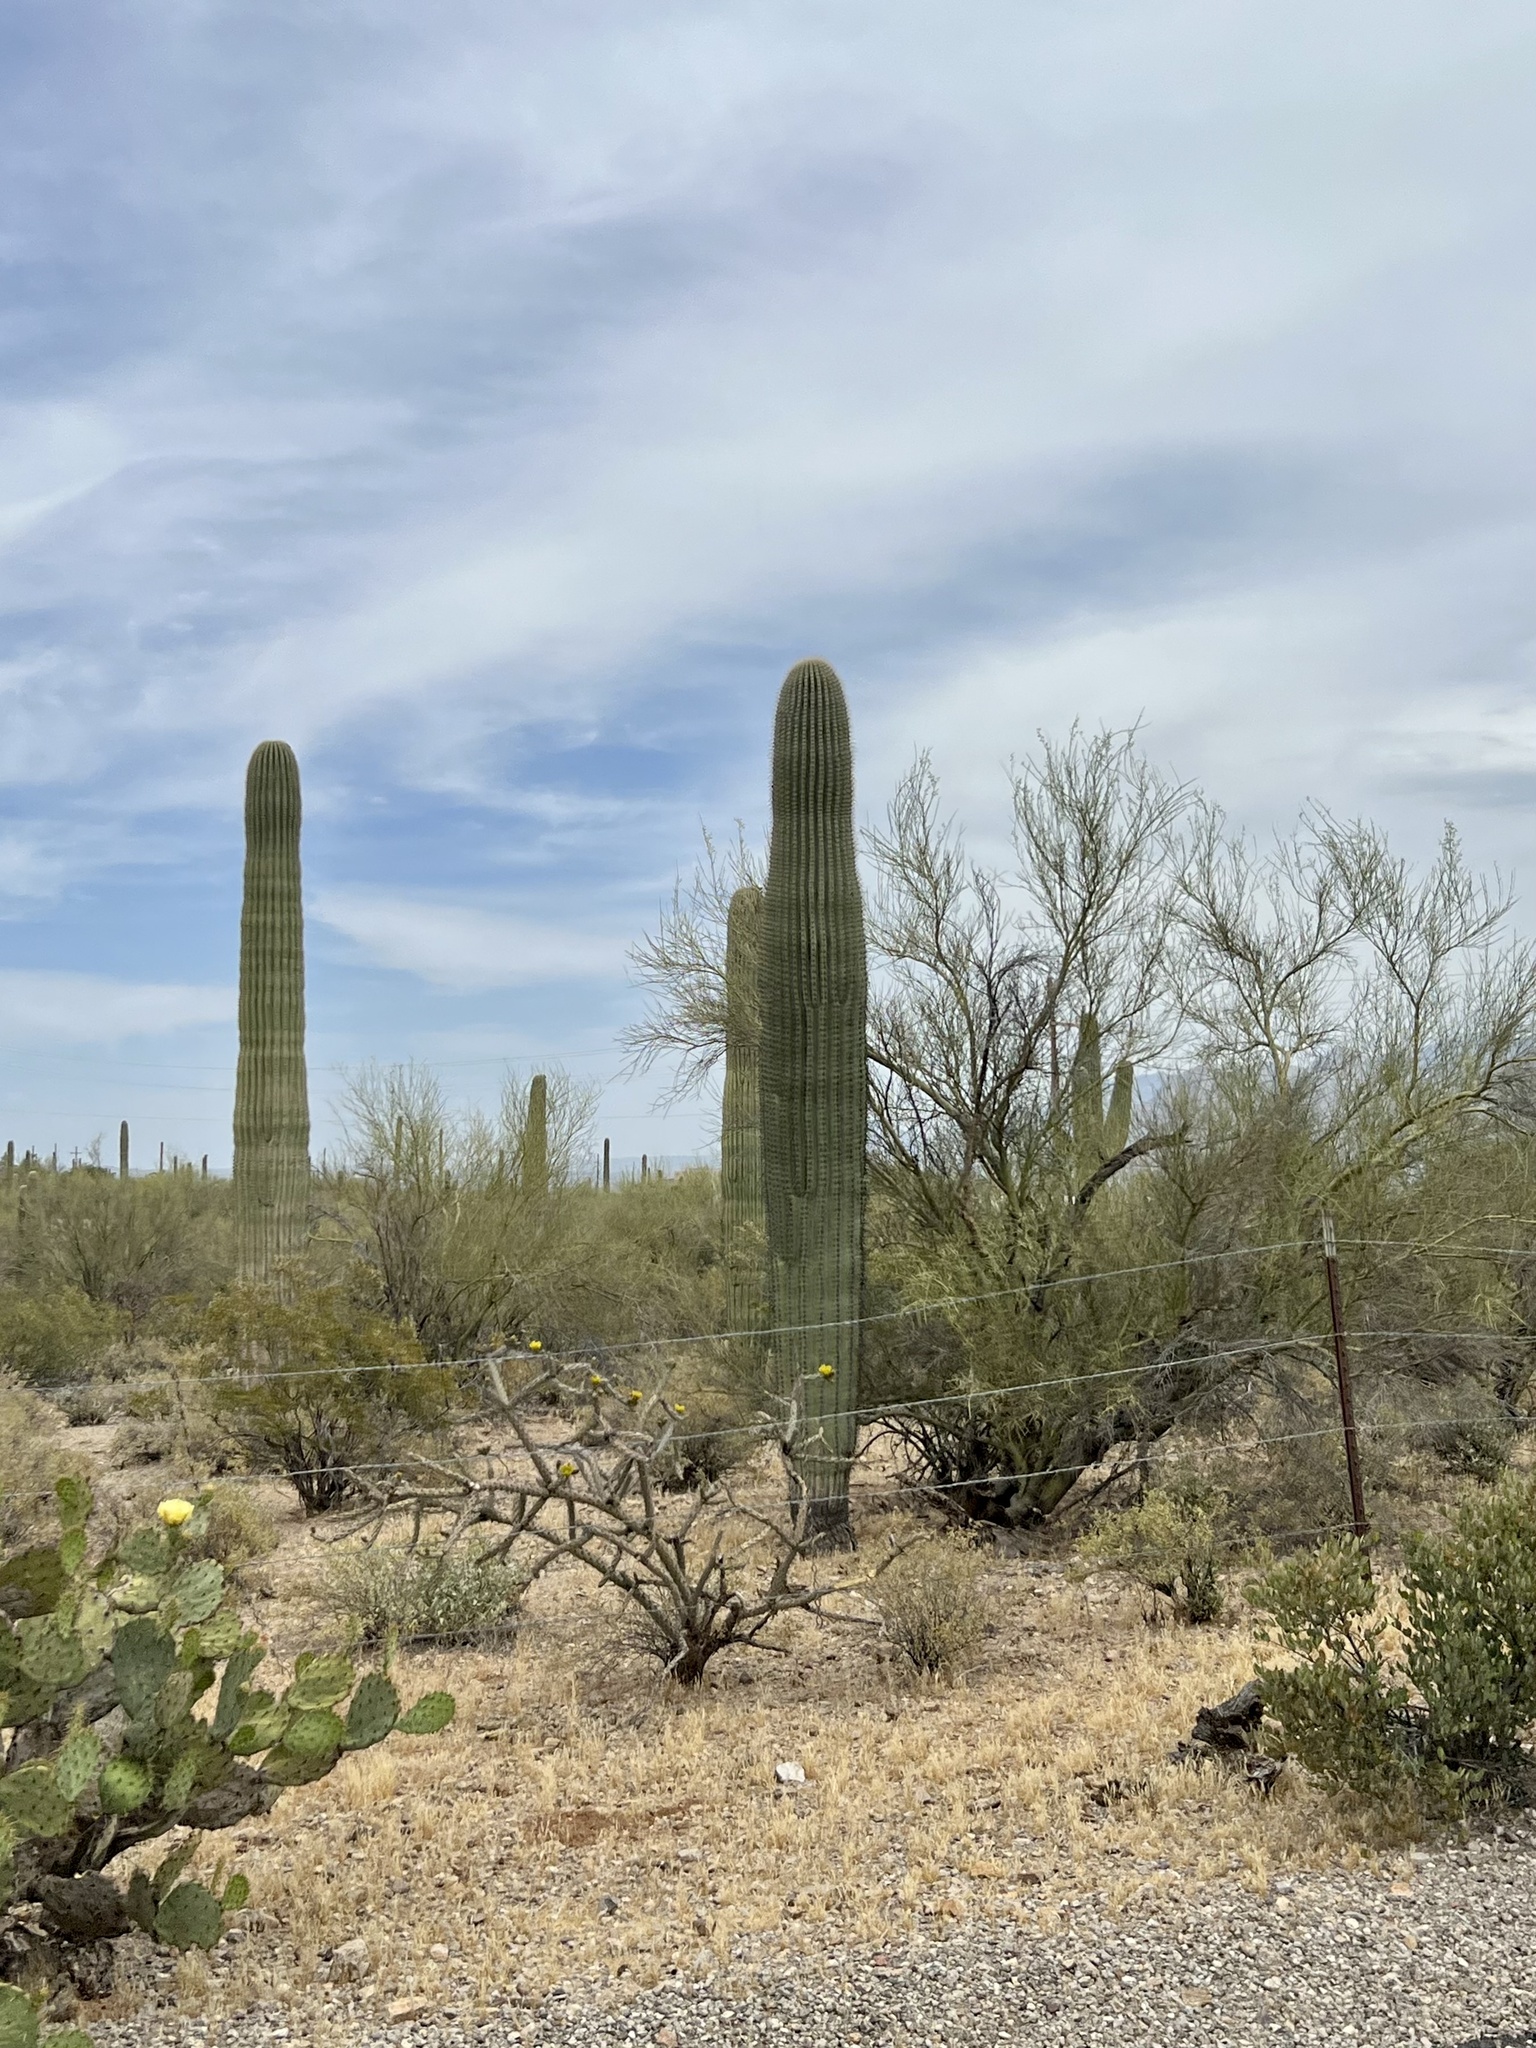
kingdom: Plantae
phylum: Tracheophyta
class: Magnoliopsida
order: Caryophyllales
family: Cactaceae
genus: Carnegiea
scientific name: Carnegiea gigantea
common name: Saguaro
